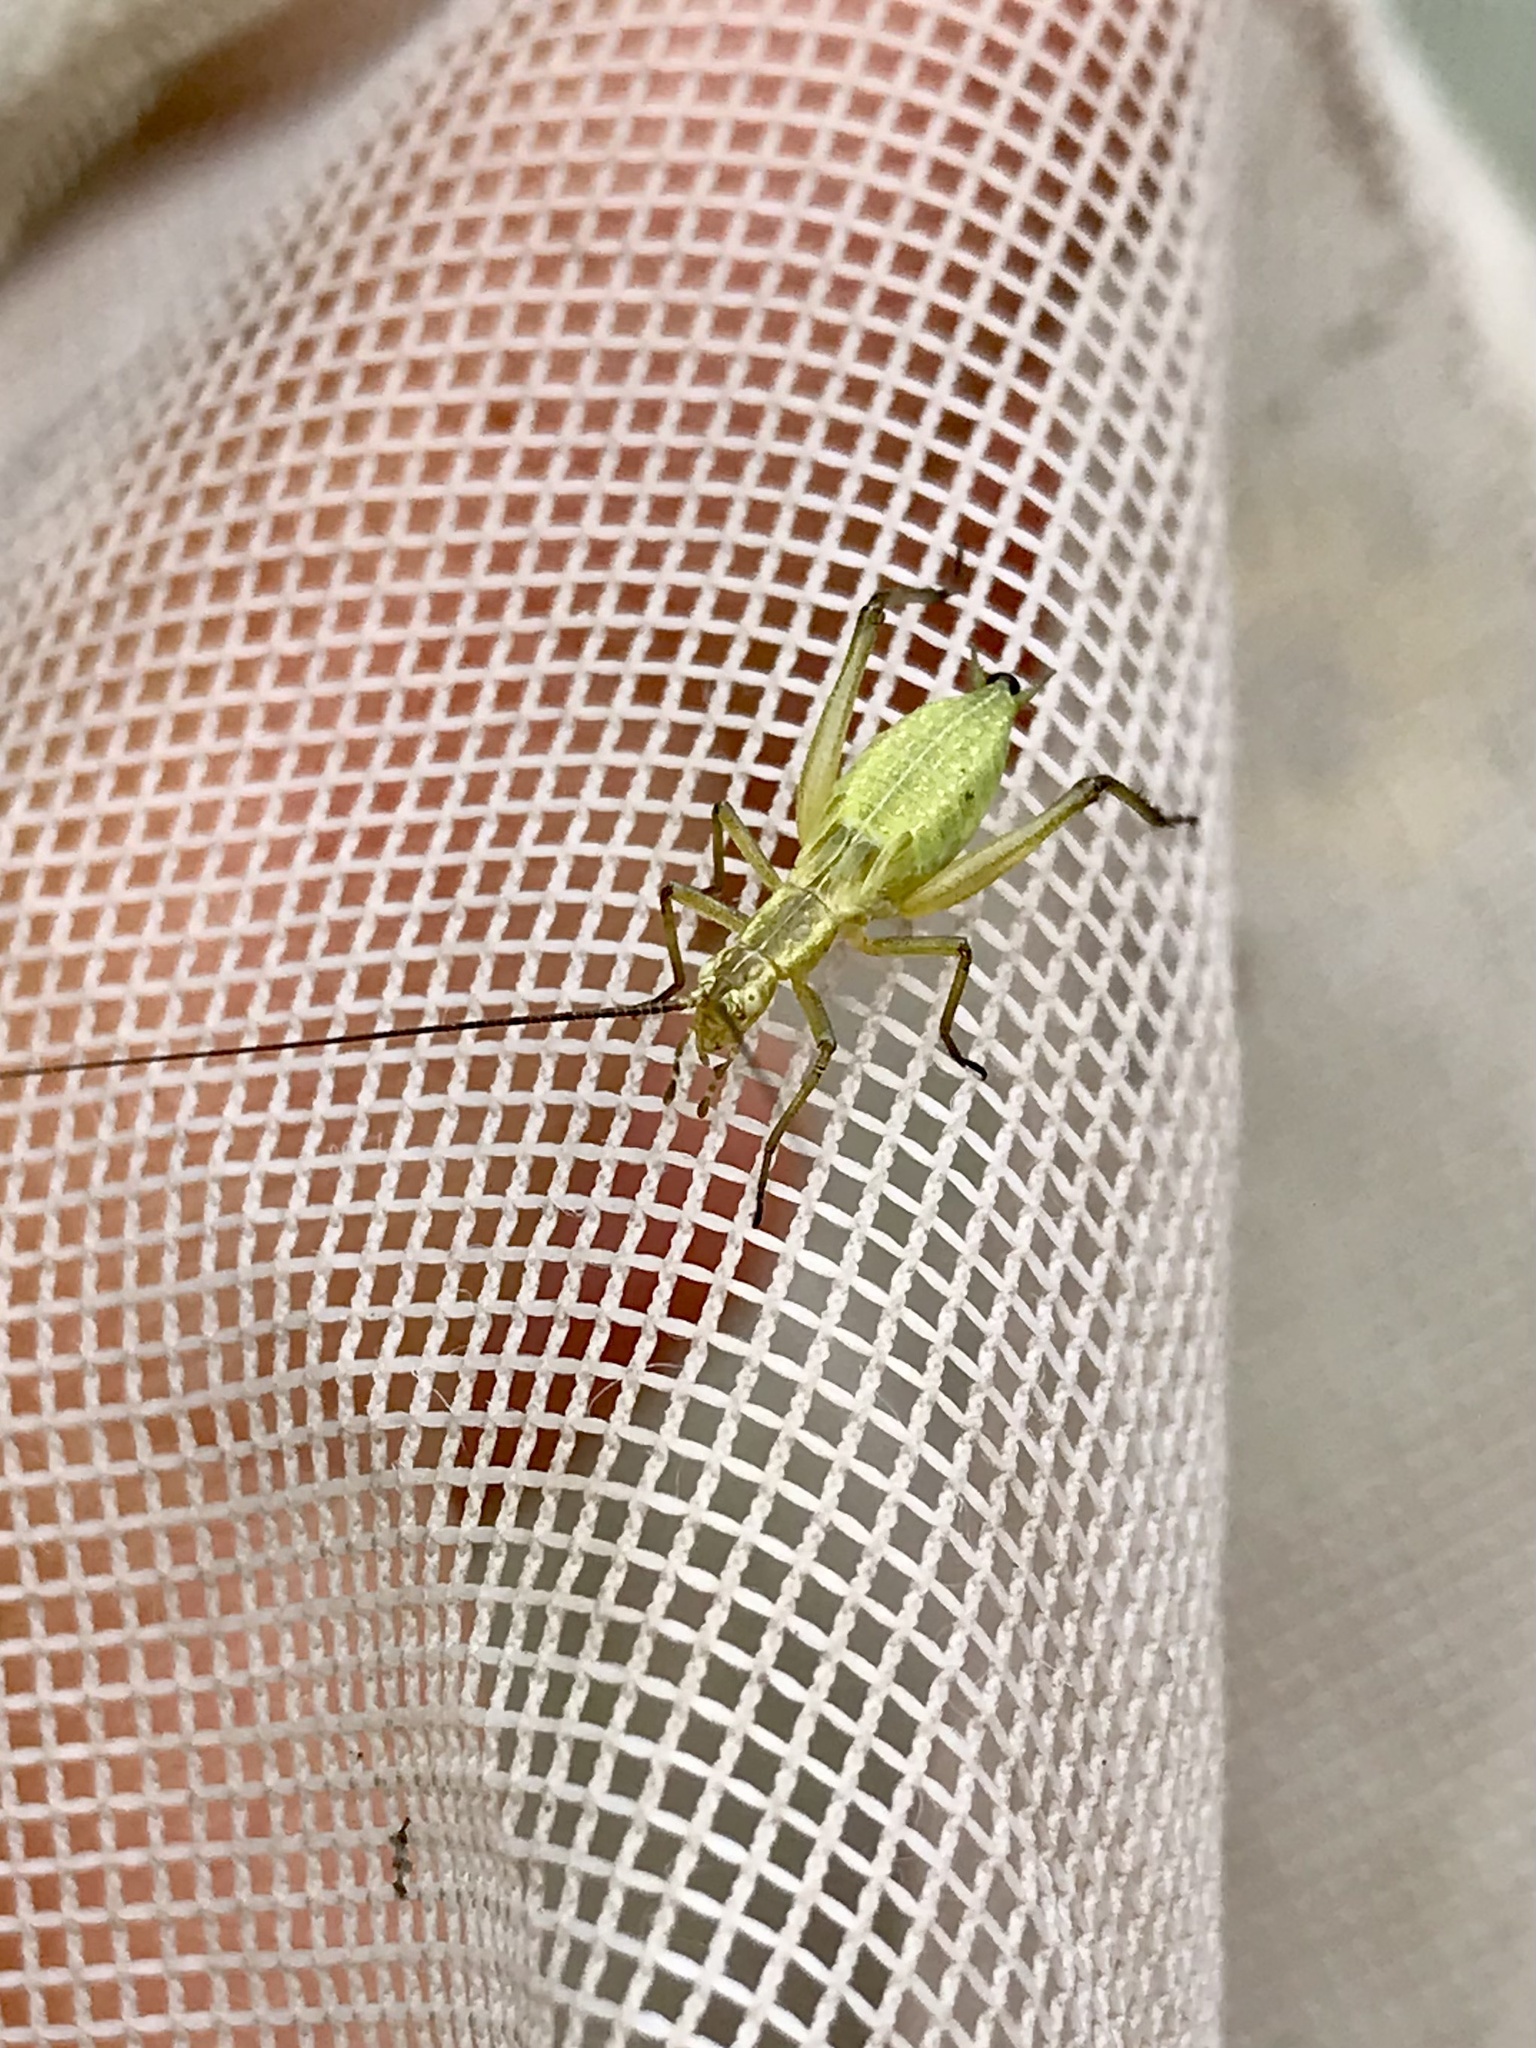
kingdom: Animalia
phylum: Arthropoda
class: Insecta
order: Orthoptera
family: Gryllidae
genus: Oecanthus
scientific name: Oecanthus forbesi
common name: Forbes’s tree cricket
